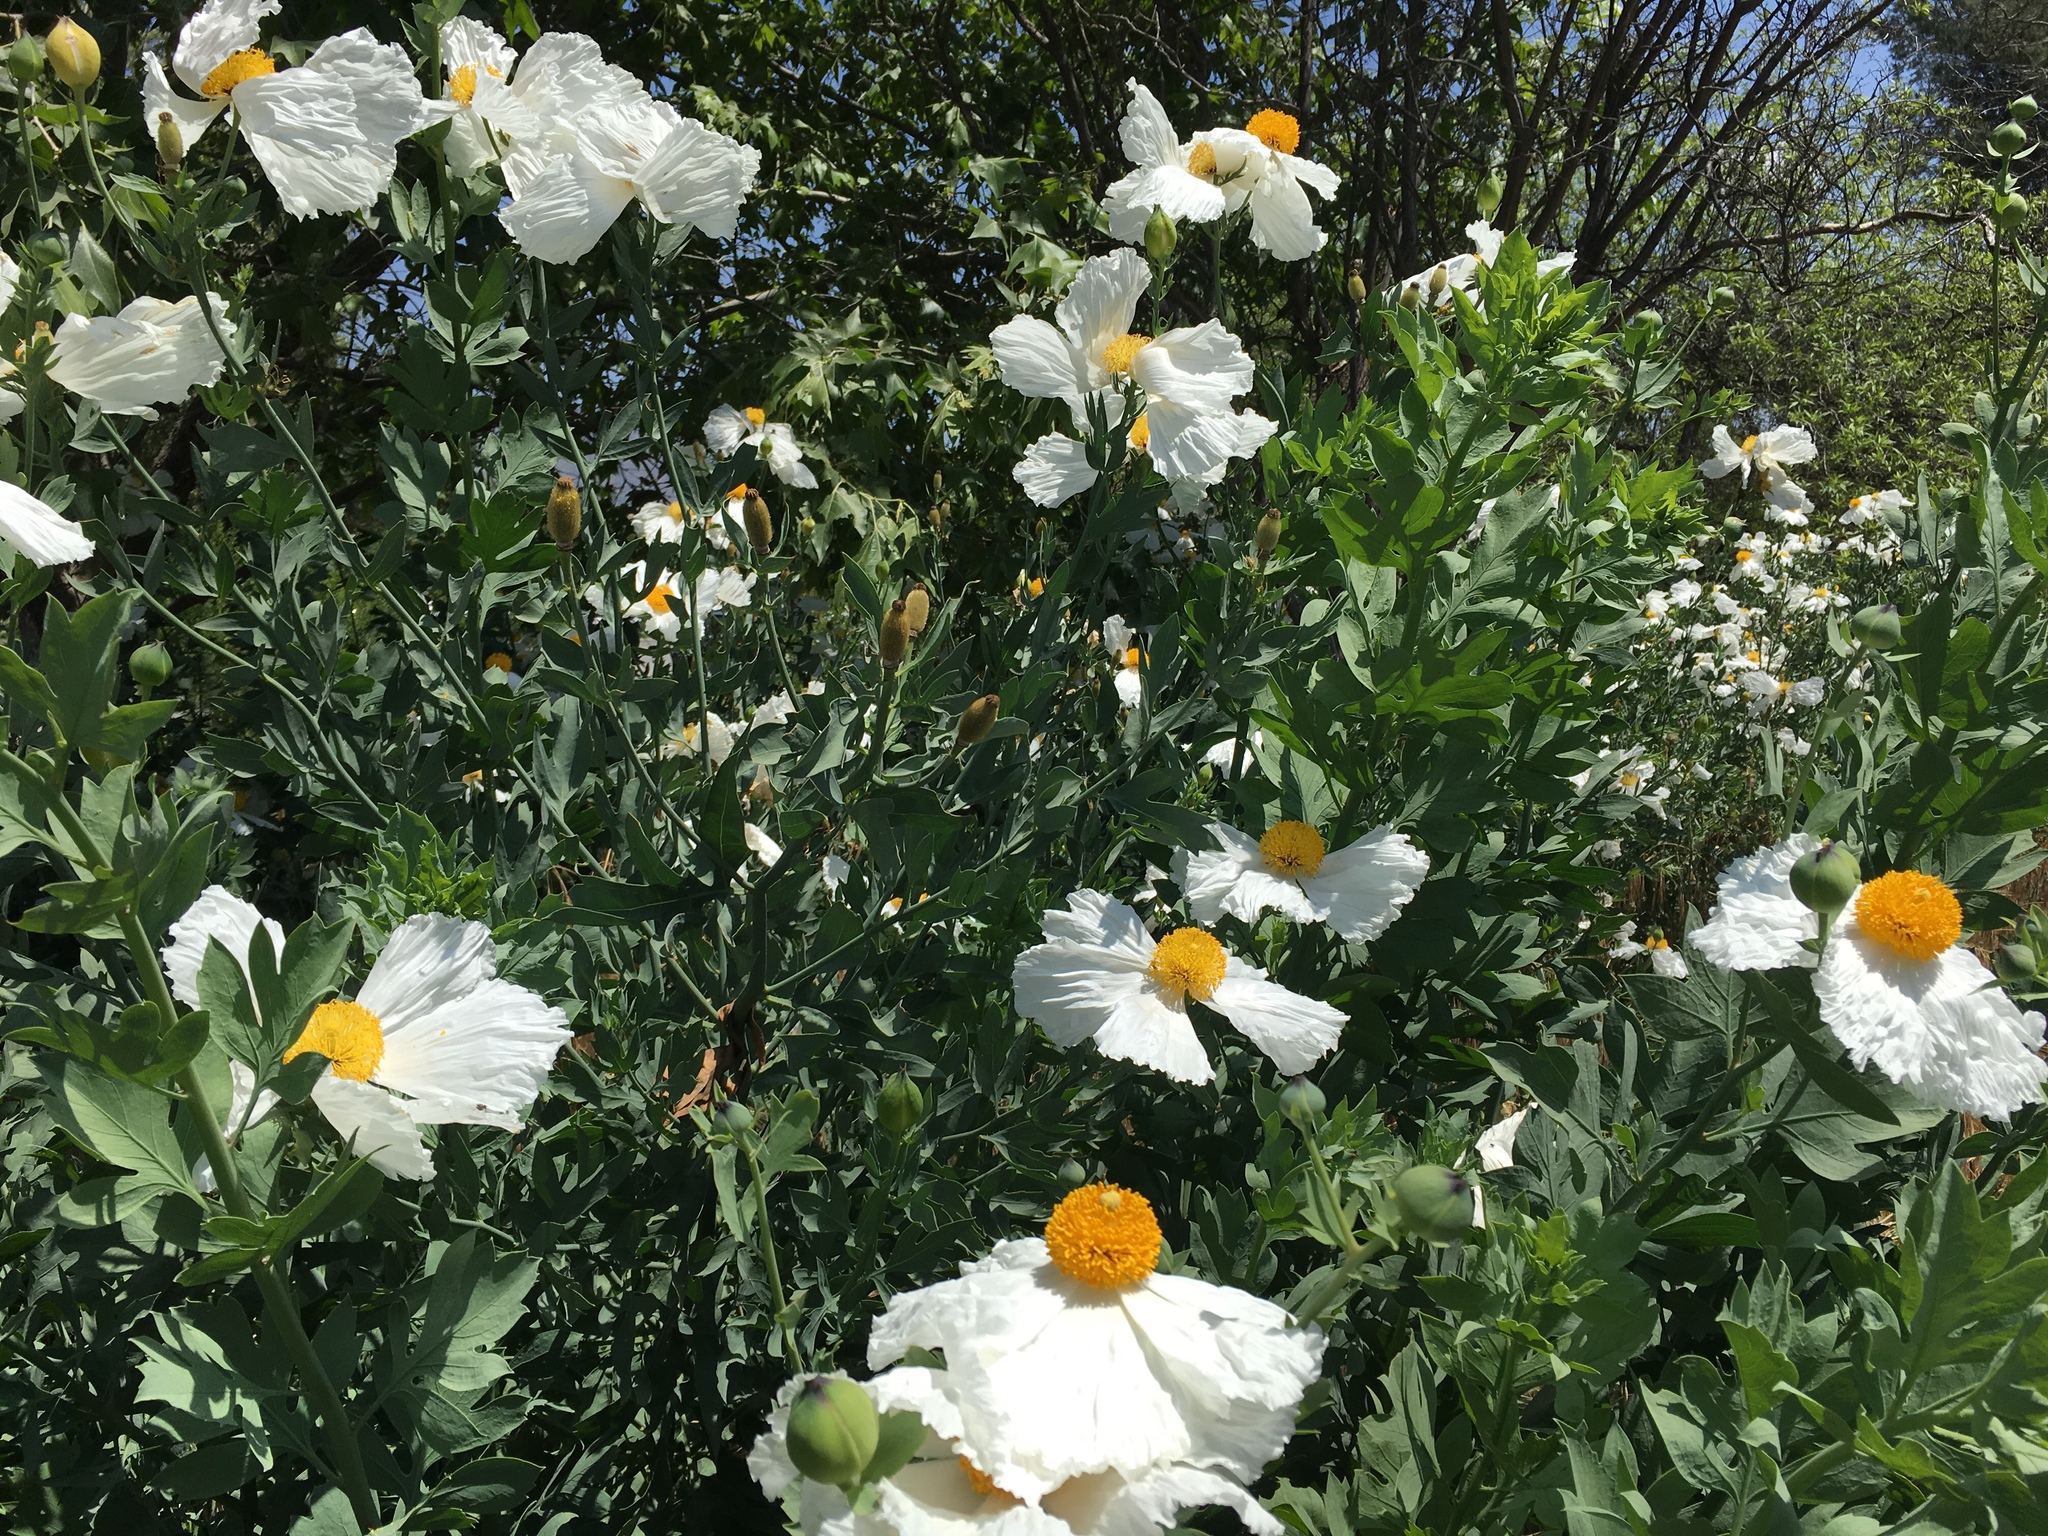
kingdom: Plantae
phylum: Tracheophyta
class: Magnoliopsida
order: Ranunculales
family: Papaveraceae
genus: Romneya
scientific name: Romneya coulteri
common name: California tree-poppy
